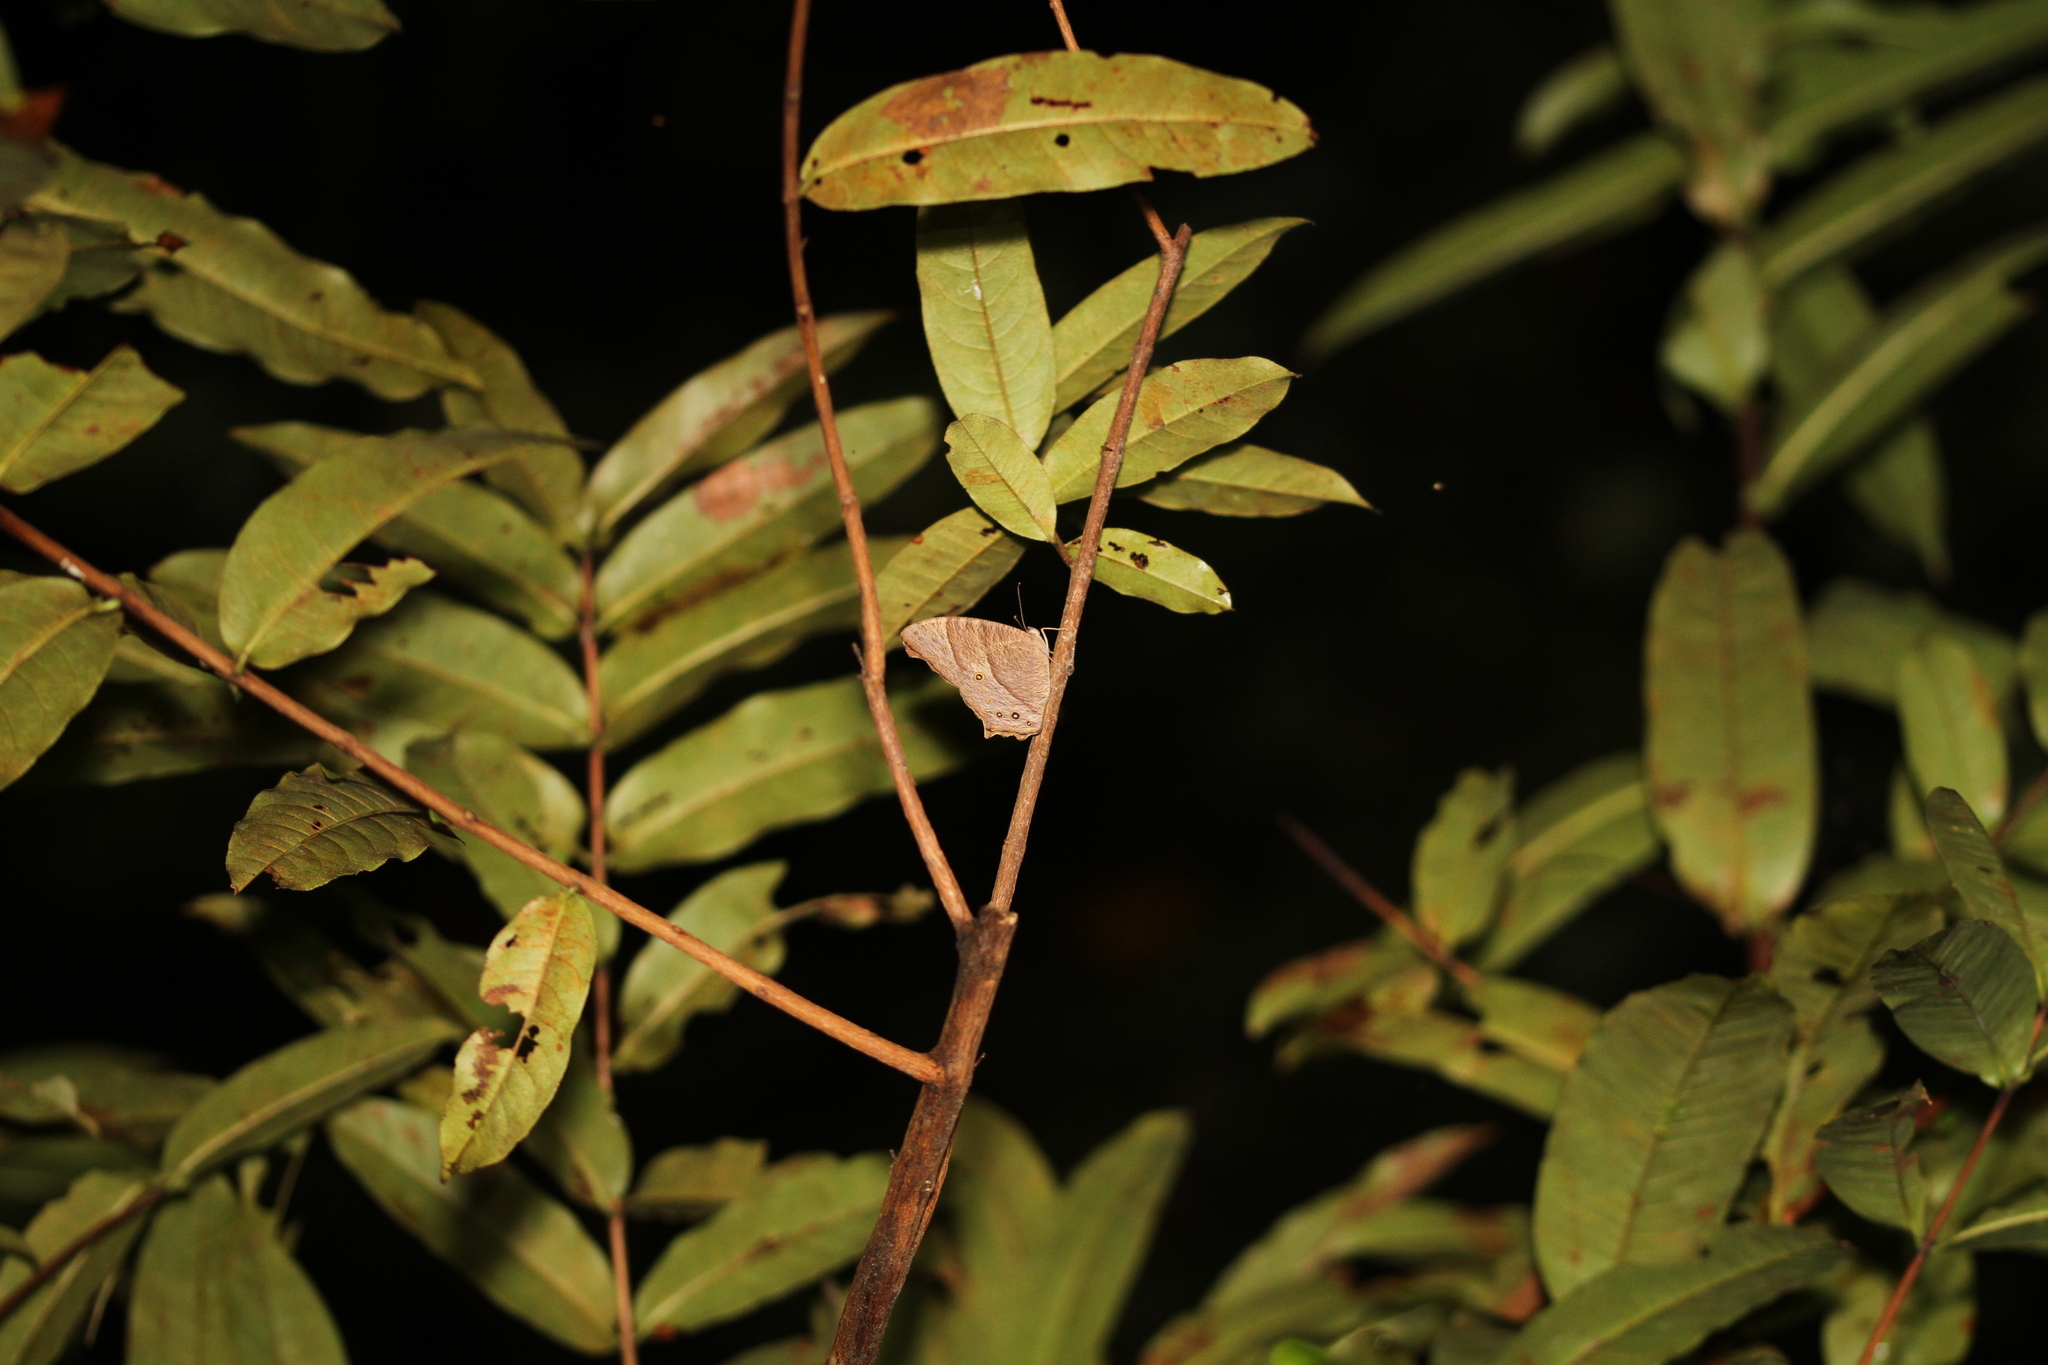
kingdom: Animalia
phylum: Arthropoda
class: Insecta
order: Lepidoptera
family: Nymphalidae
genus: Melanitis
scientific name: Melanitis leda
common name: Twilight brown
